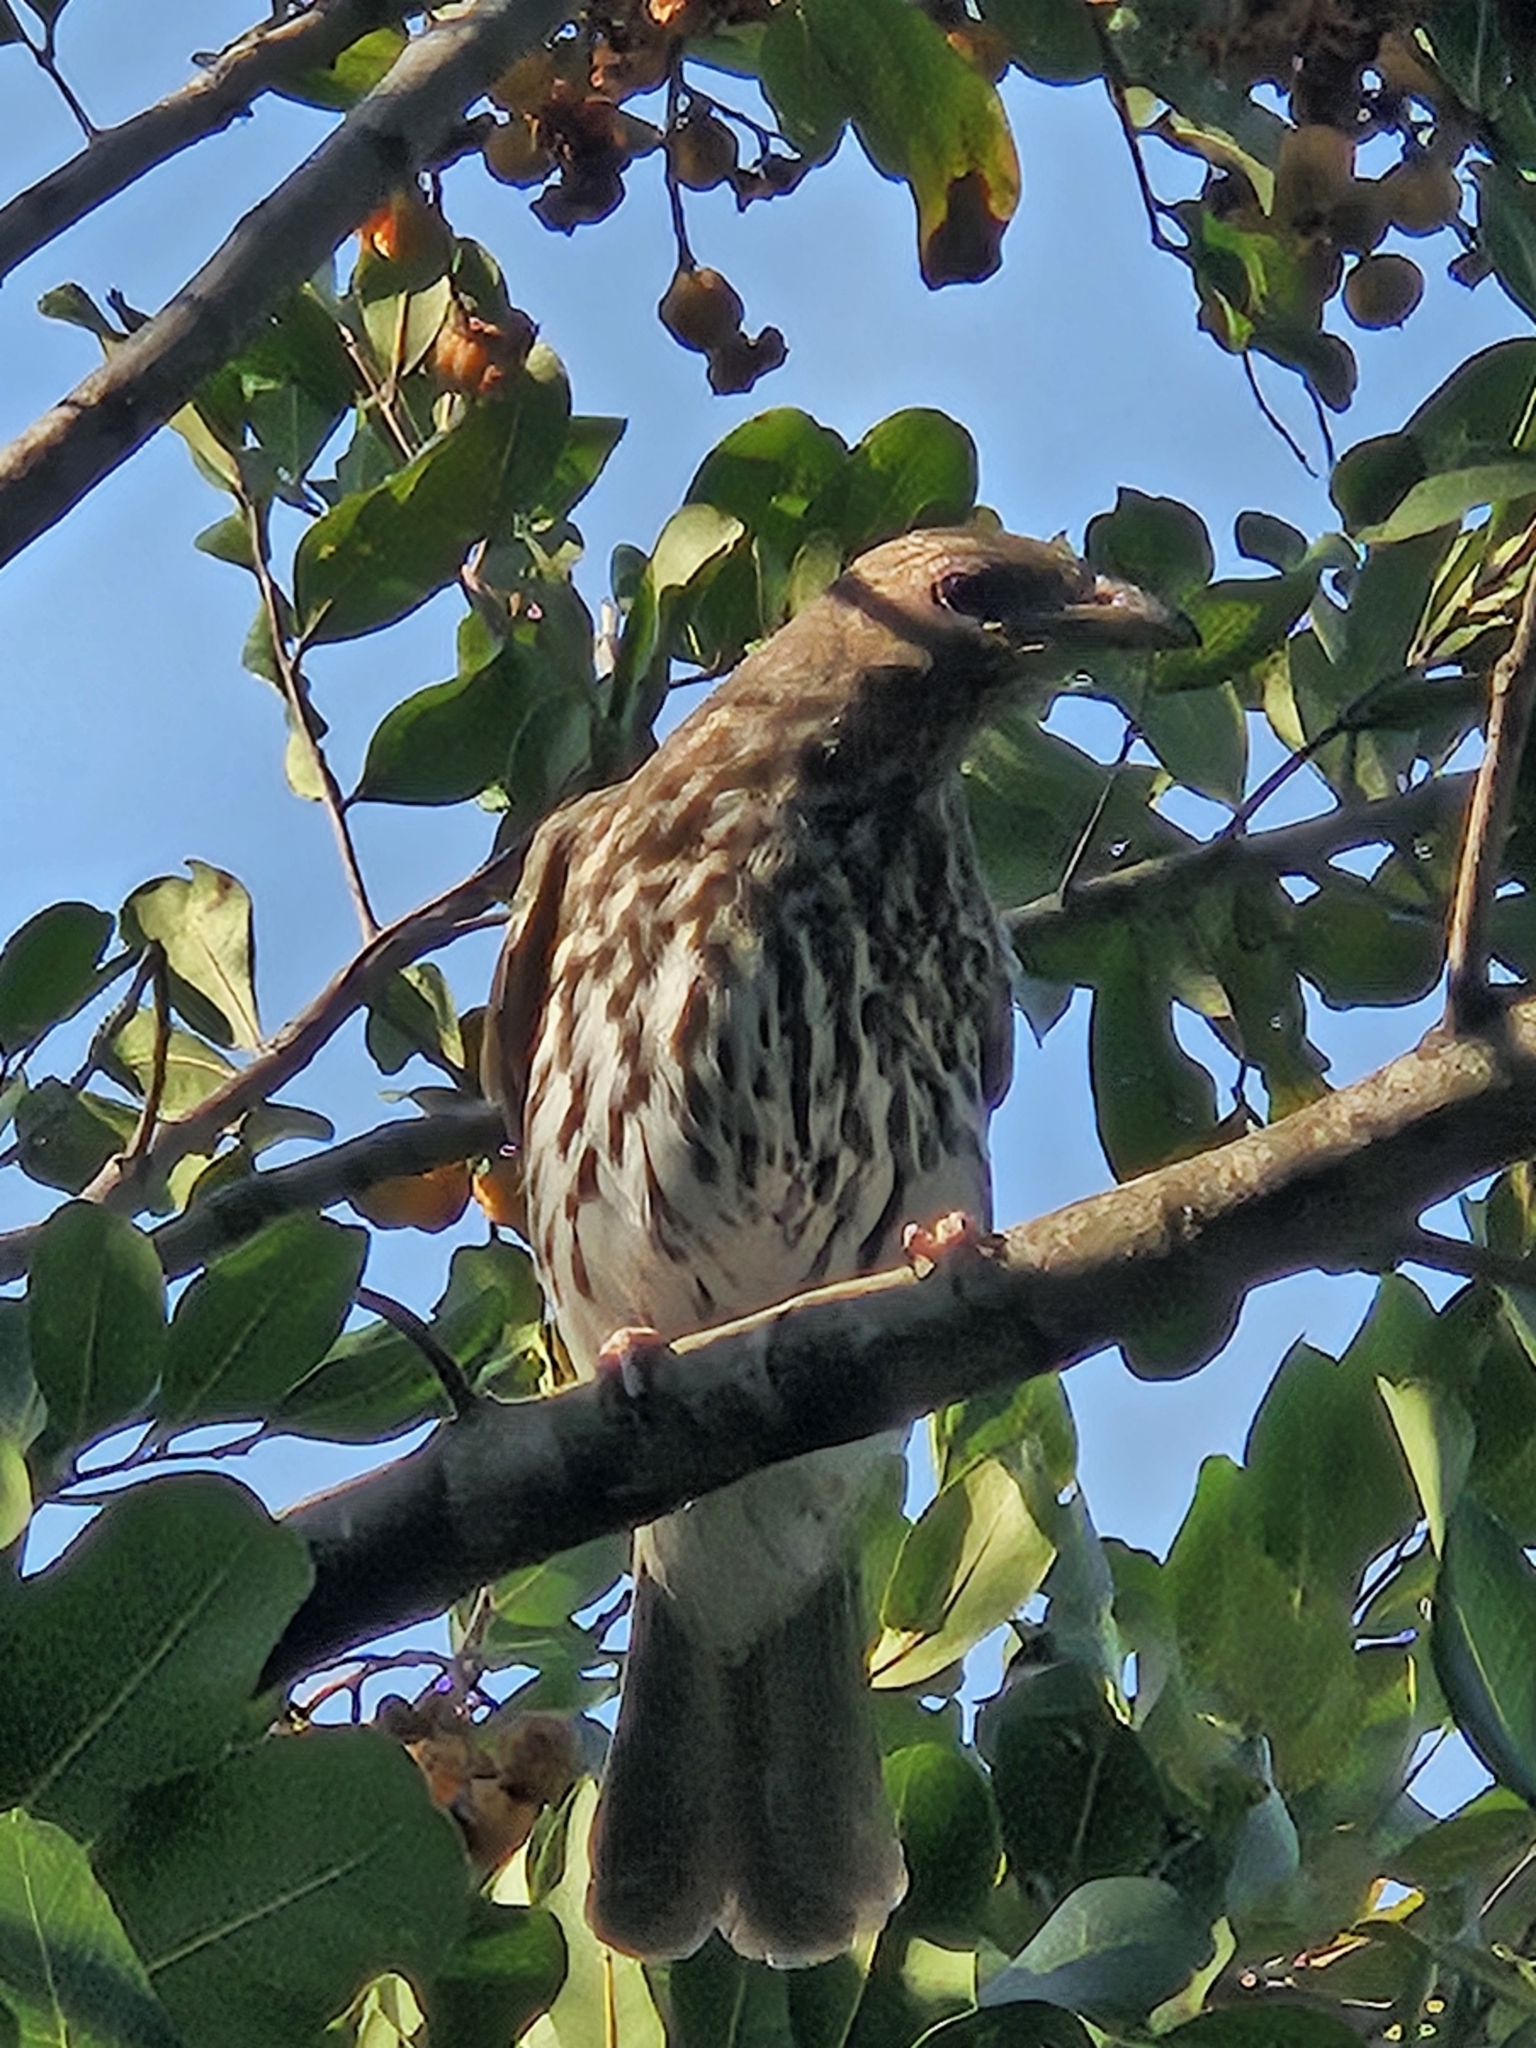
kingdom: Animalia
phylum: Chordata
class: Aves
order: Passeriformes
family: Oriolidae
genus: Sphecotheres
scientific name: Sphecotheres vieilloti
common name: Australasian figbird
